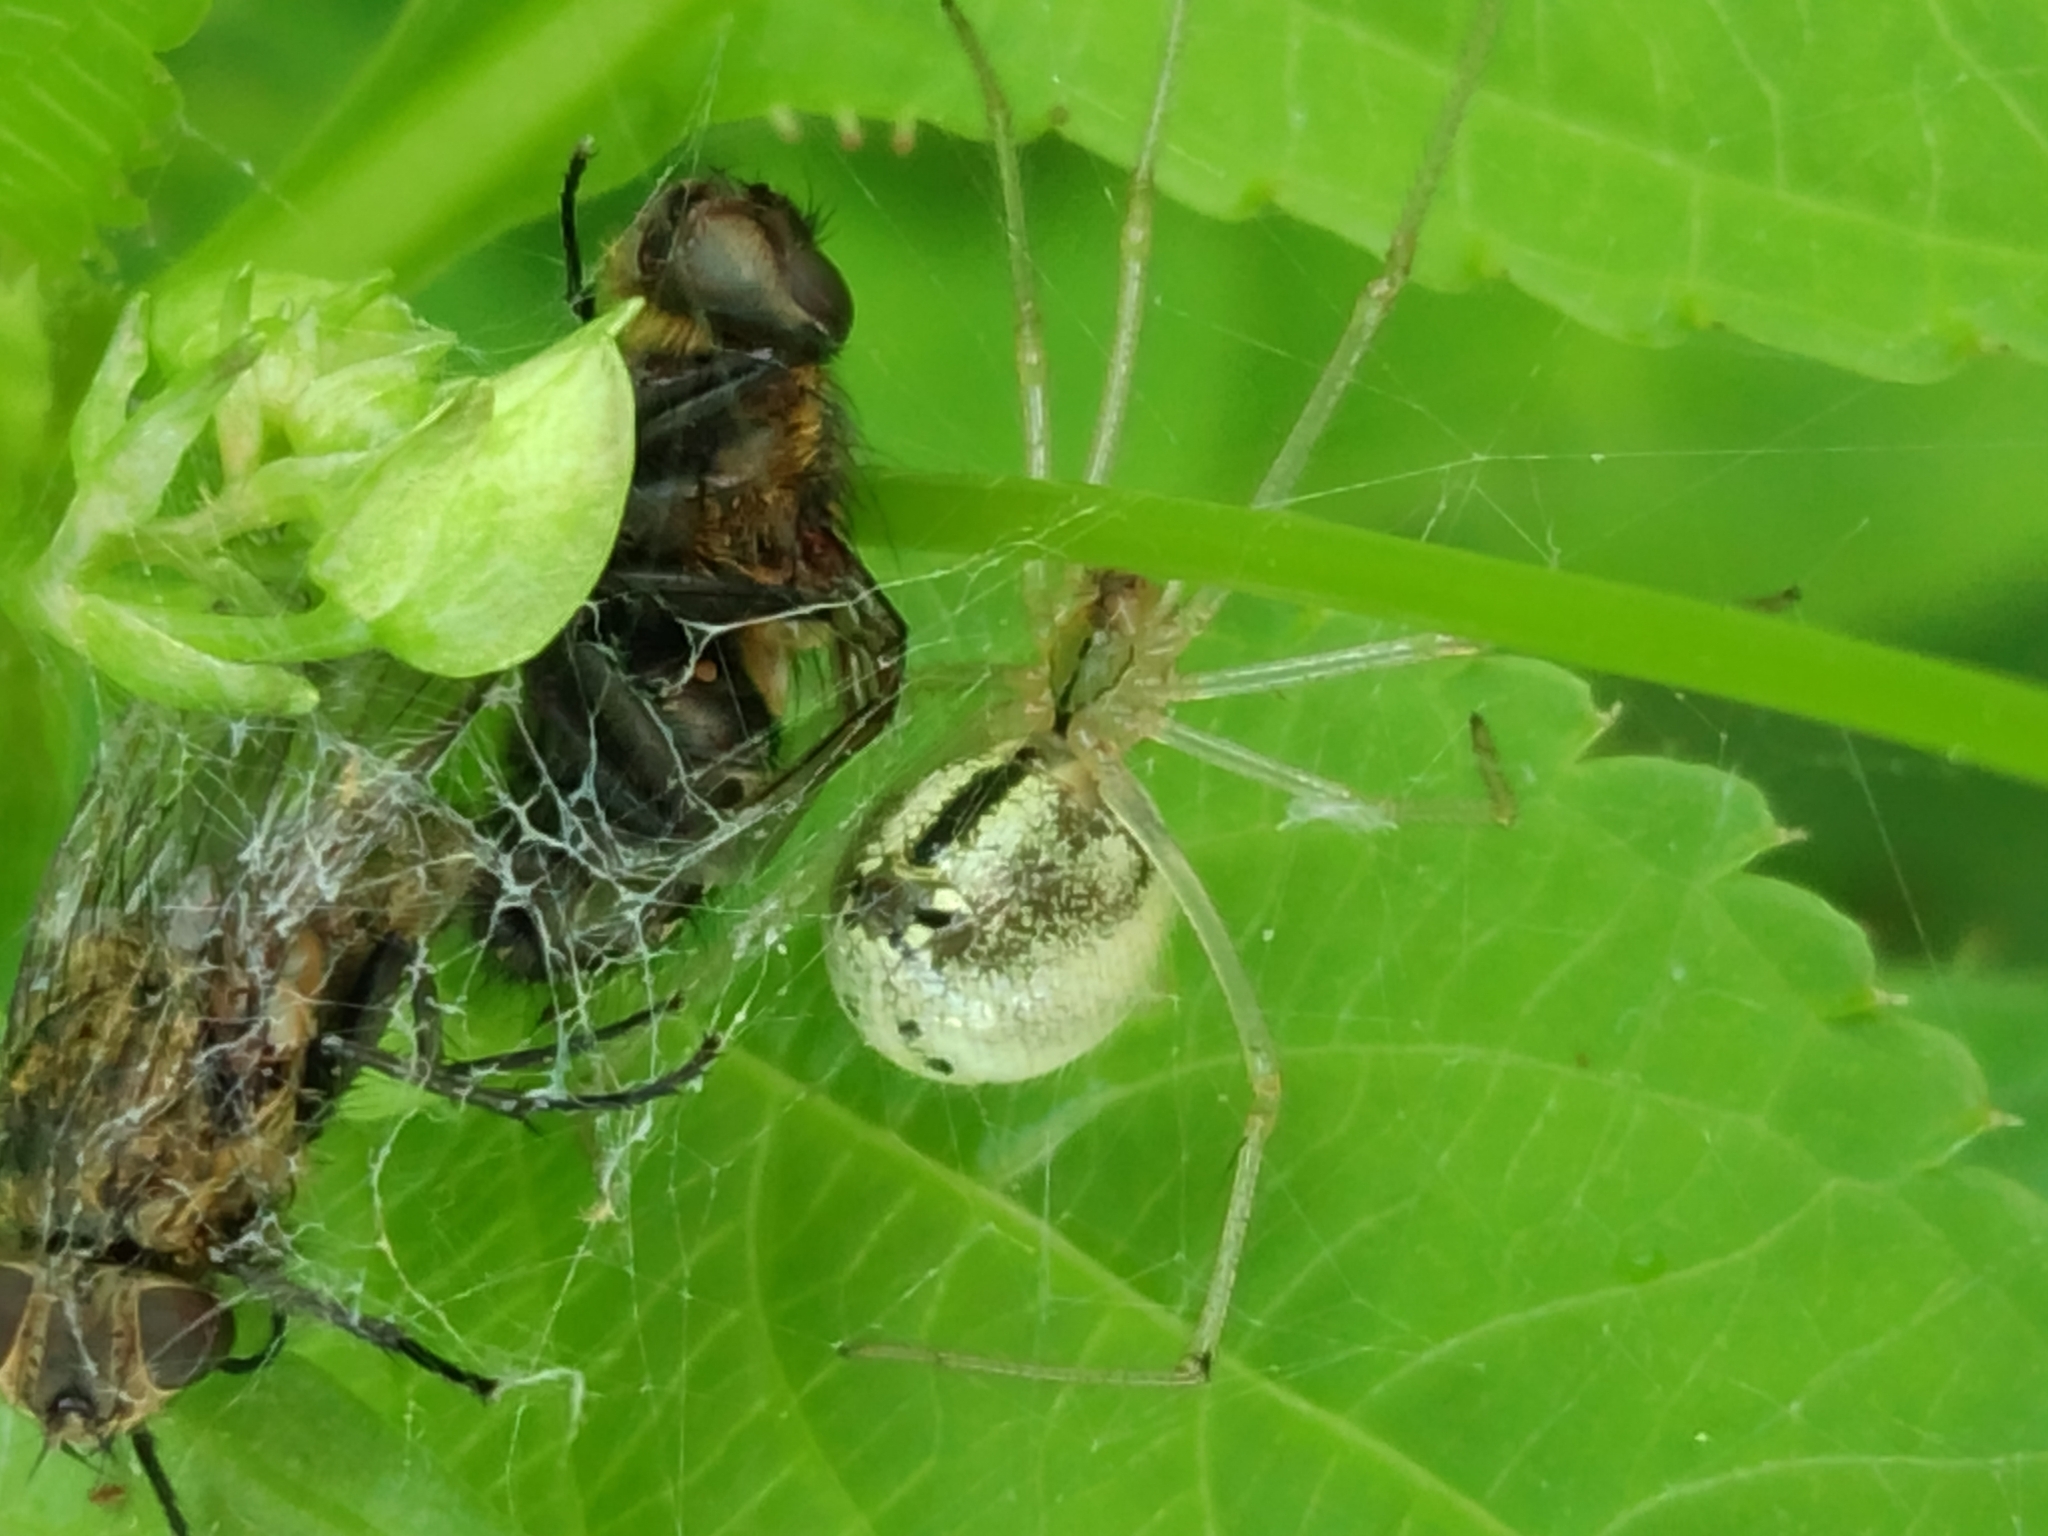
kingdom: Animalia
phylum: Arthropoda
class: Arachnida
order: Araneae
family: Theridiidae
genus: Enoplognatha
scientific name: Enoplognatha
